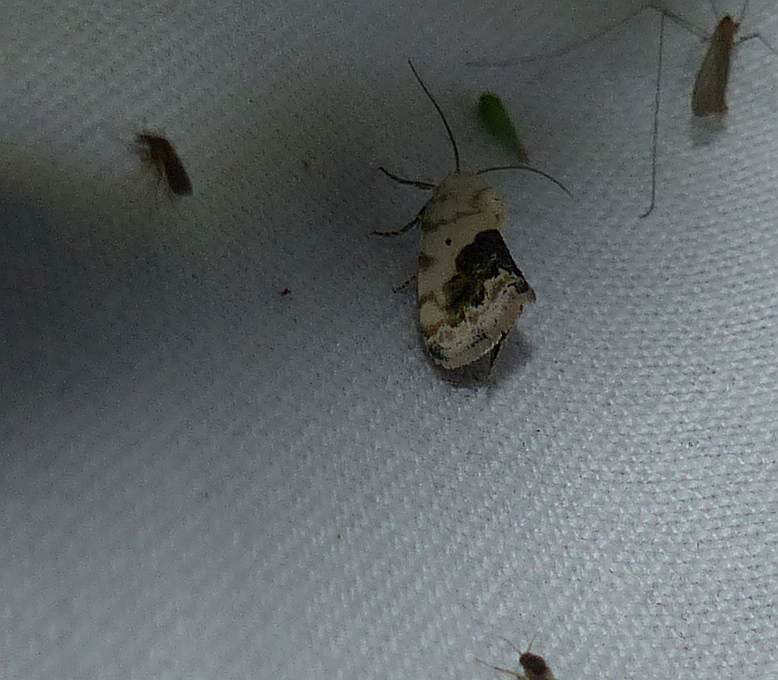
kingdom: Animalia
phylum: Arthropoda
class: Insecta
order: Lepidoptera
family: Noctuidae
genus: Acontia
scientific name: Acontia erastrioides
